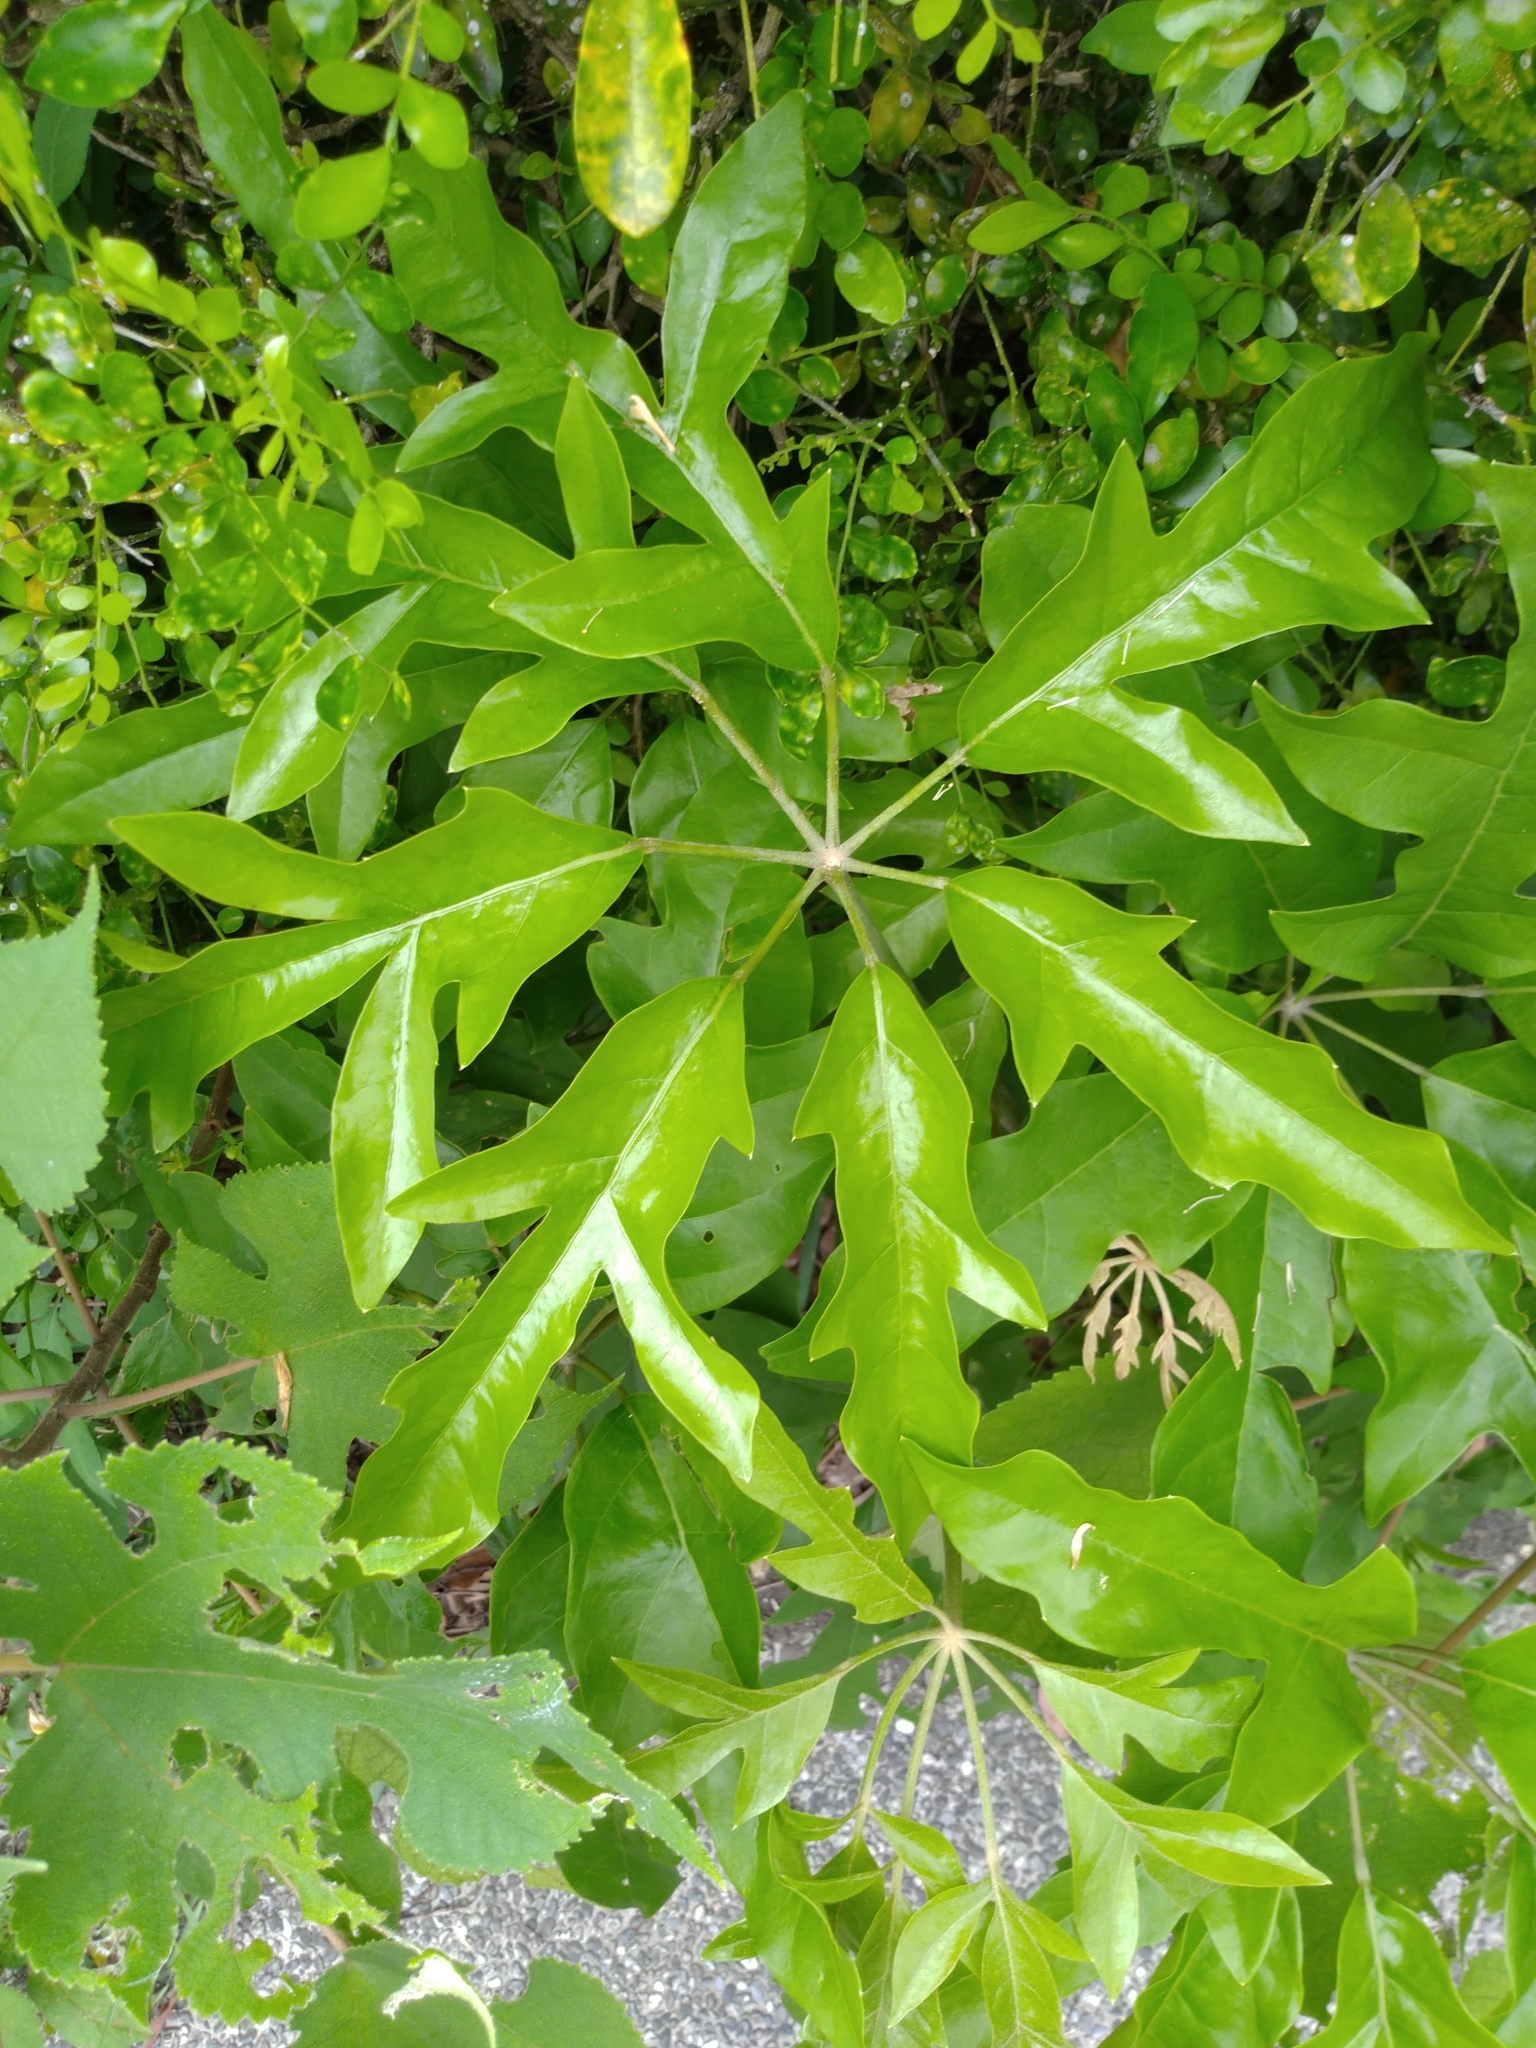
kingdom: Plantae
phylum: Tracheophyta
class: Magnoliopsida
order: Apiales
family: Araliaceae
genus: Heptapleurum
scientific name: Heptapleurum heptaphyllum
